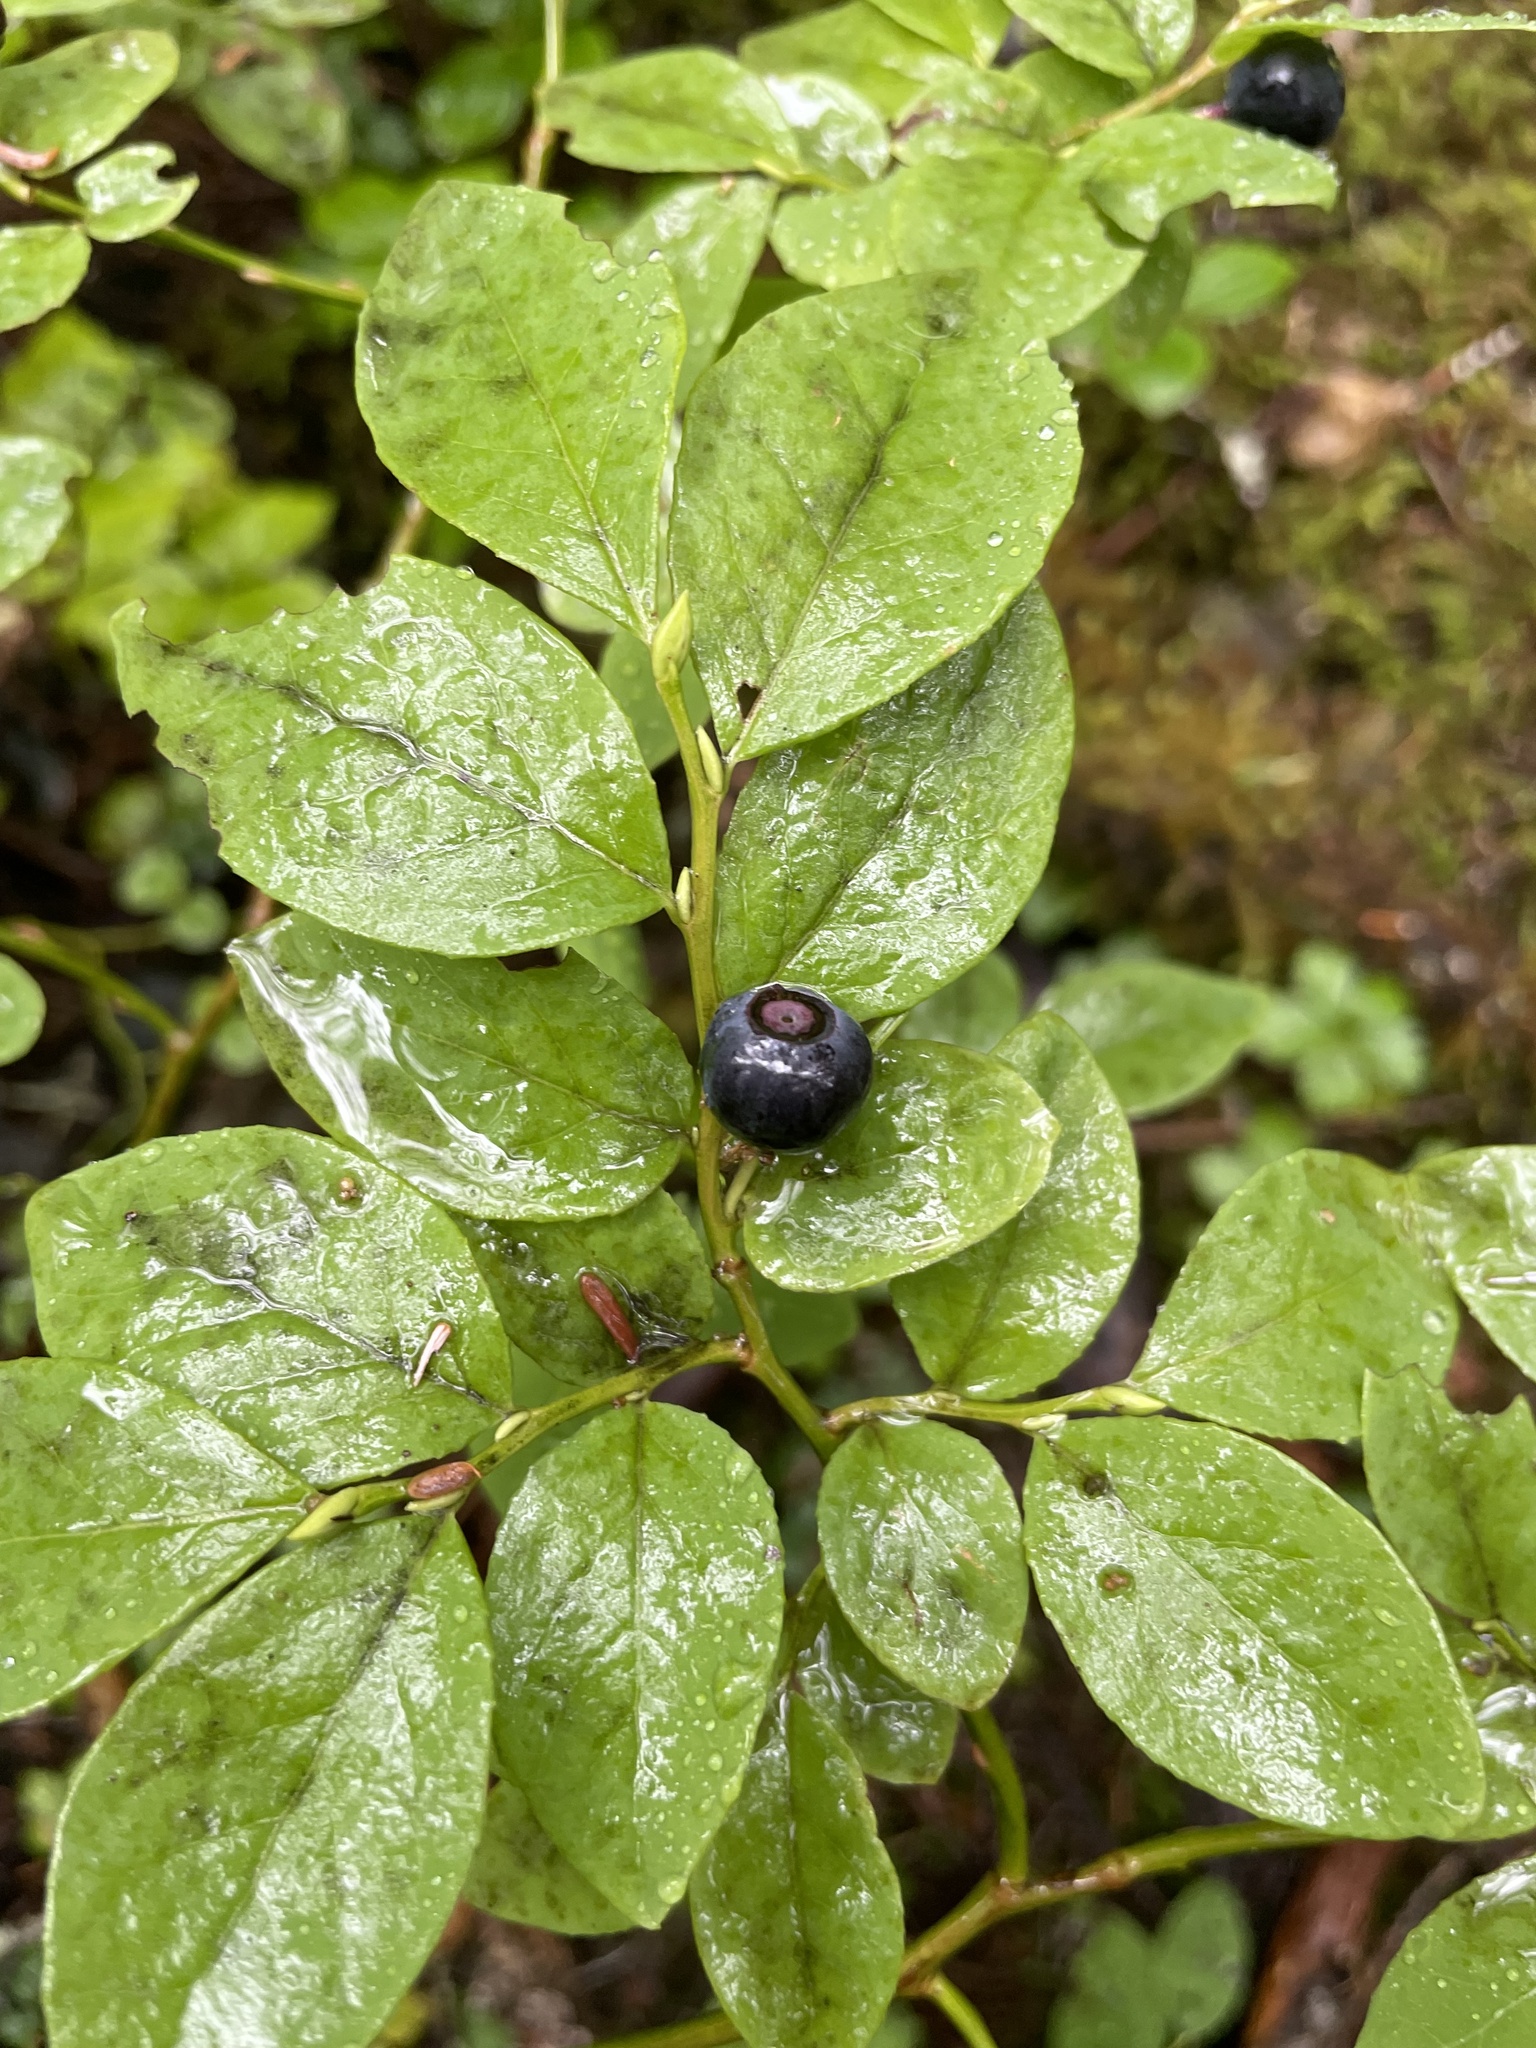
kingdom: Plantae
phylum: Tracheophyta
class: Magnoliopsida
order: Ericales
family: Ericaceae
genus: Vaccinium
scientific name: Vaccinium ovalifolium
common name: Early blueberry
